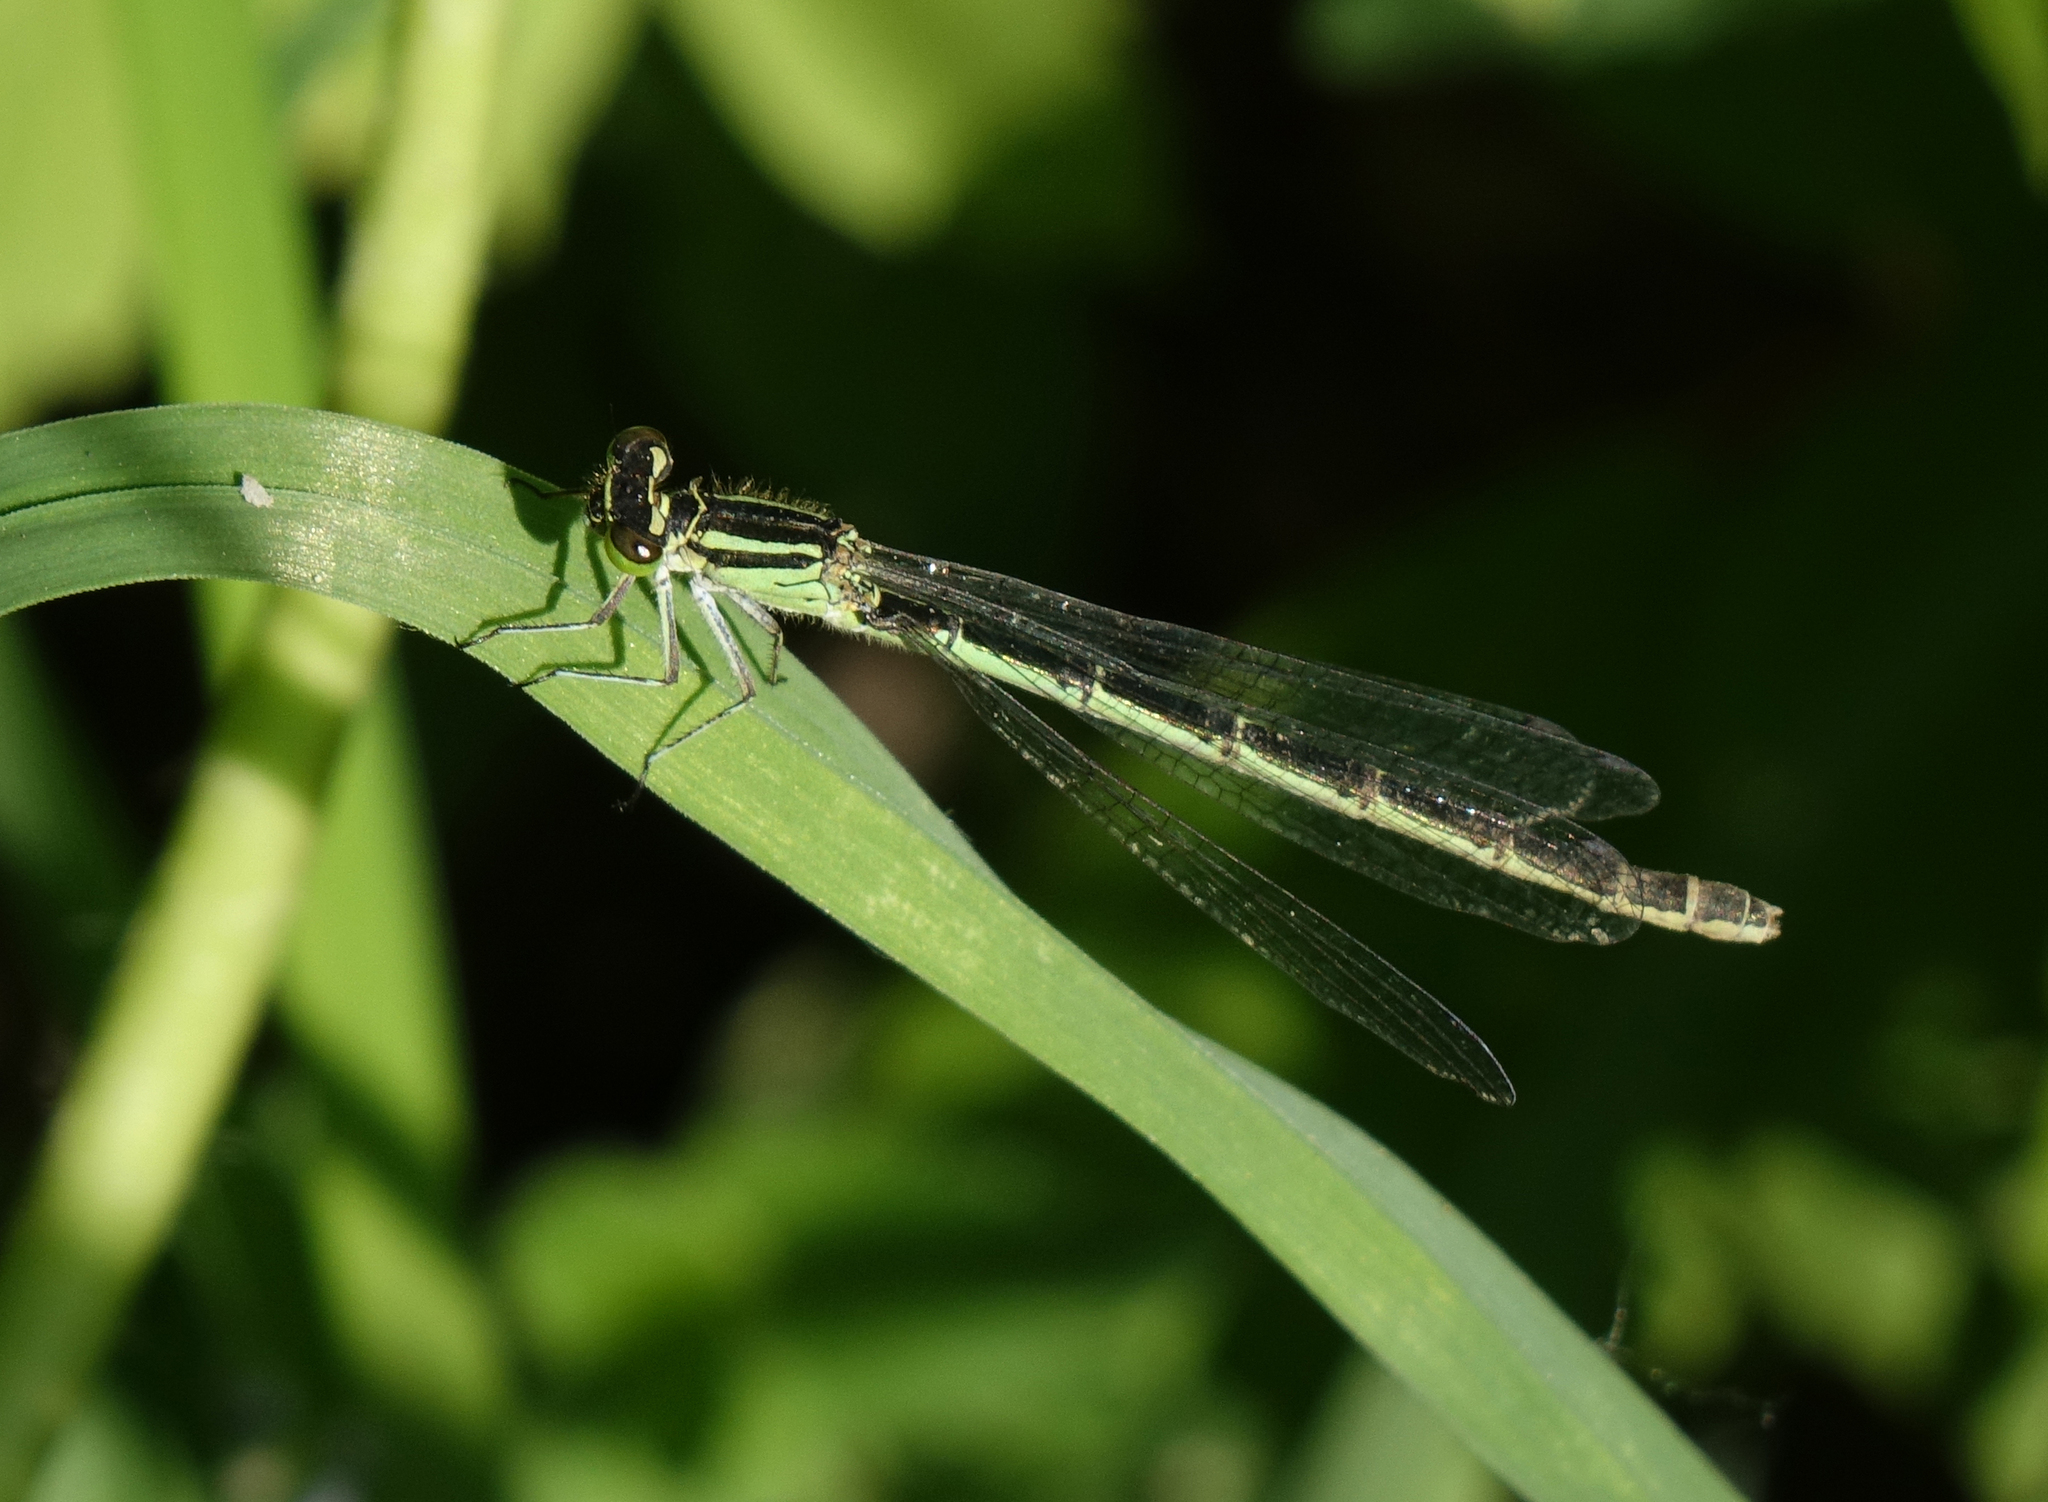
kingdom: Animalia
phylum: Arthropoda
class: Insecta
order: Odonata
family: Coenagrionidae
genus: Coenagrion
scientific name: Coenagrion hastulatum
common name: Spearhead bluet
